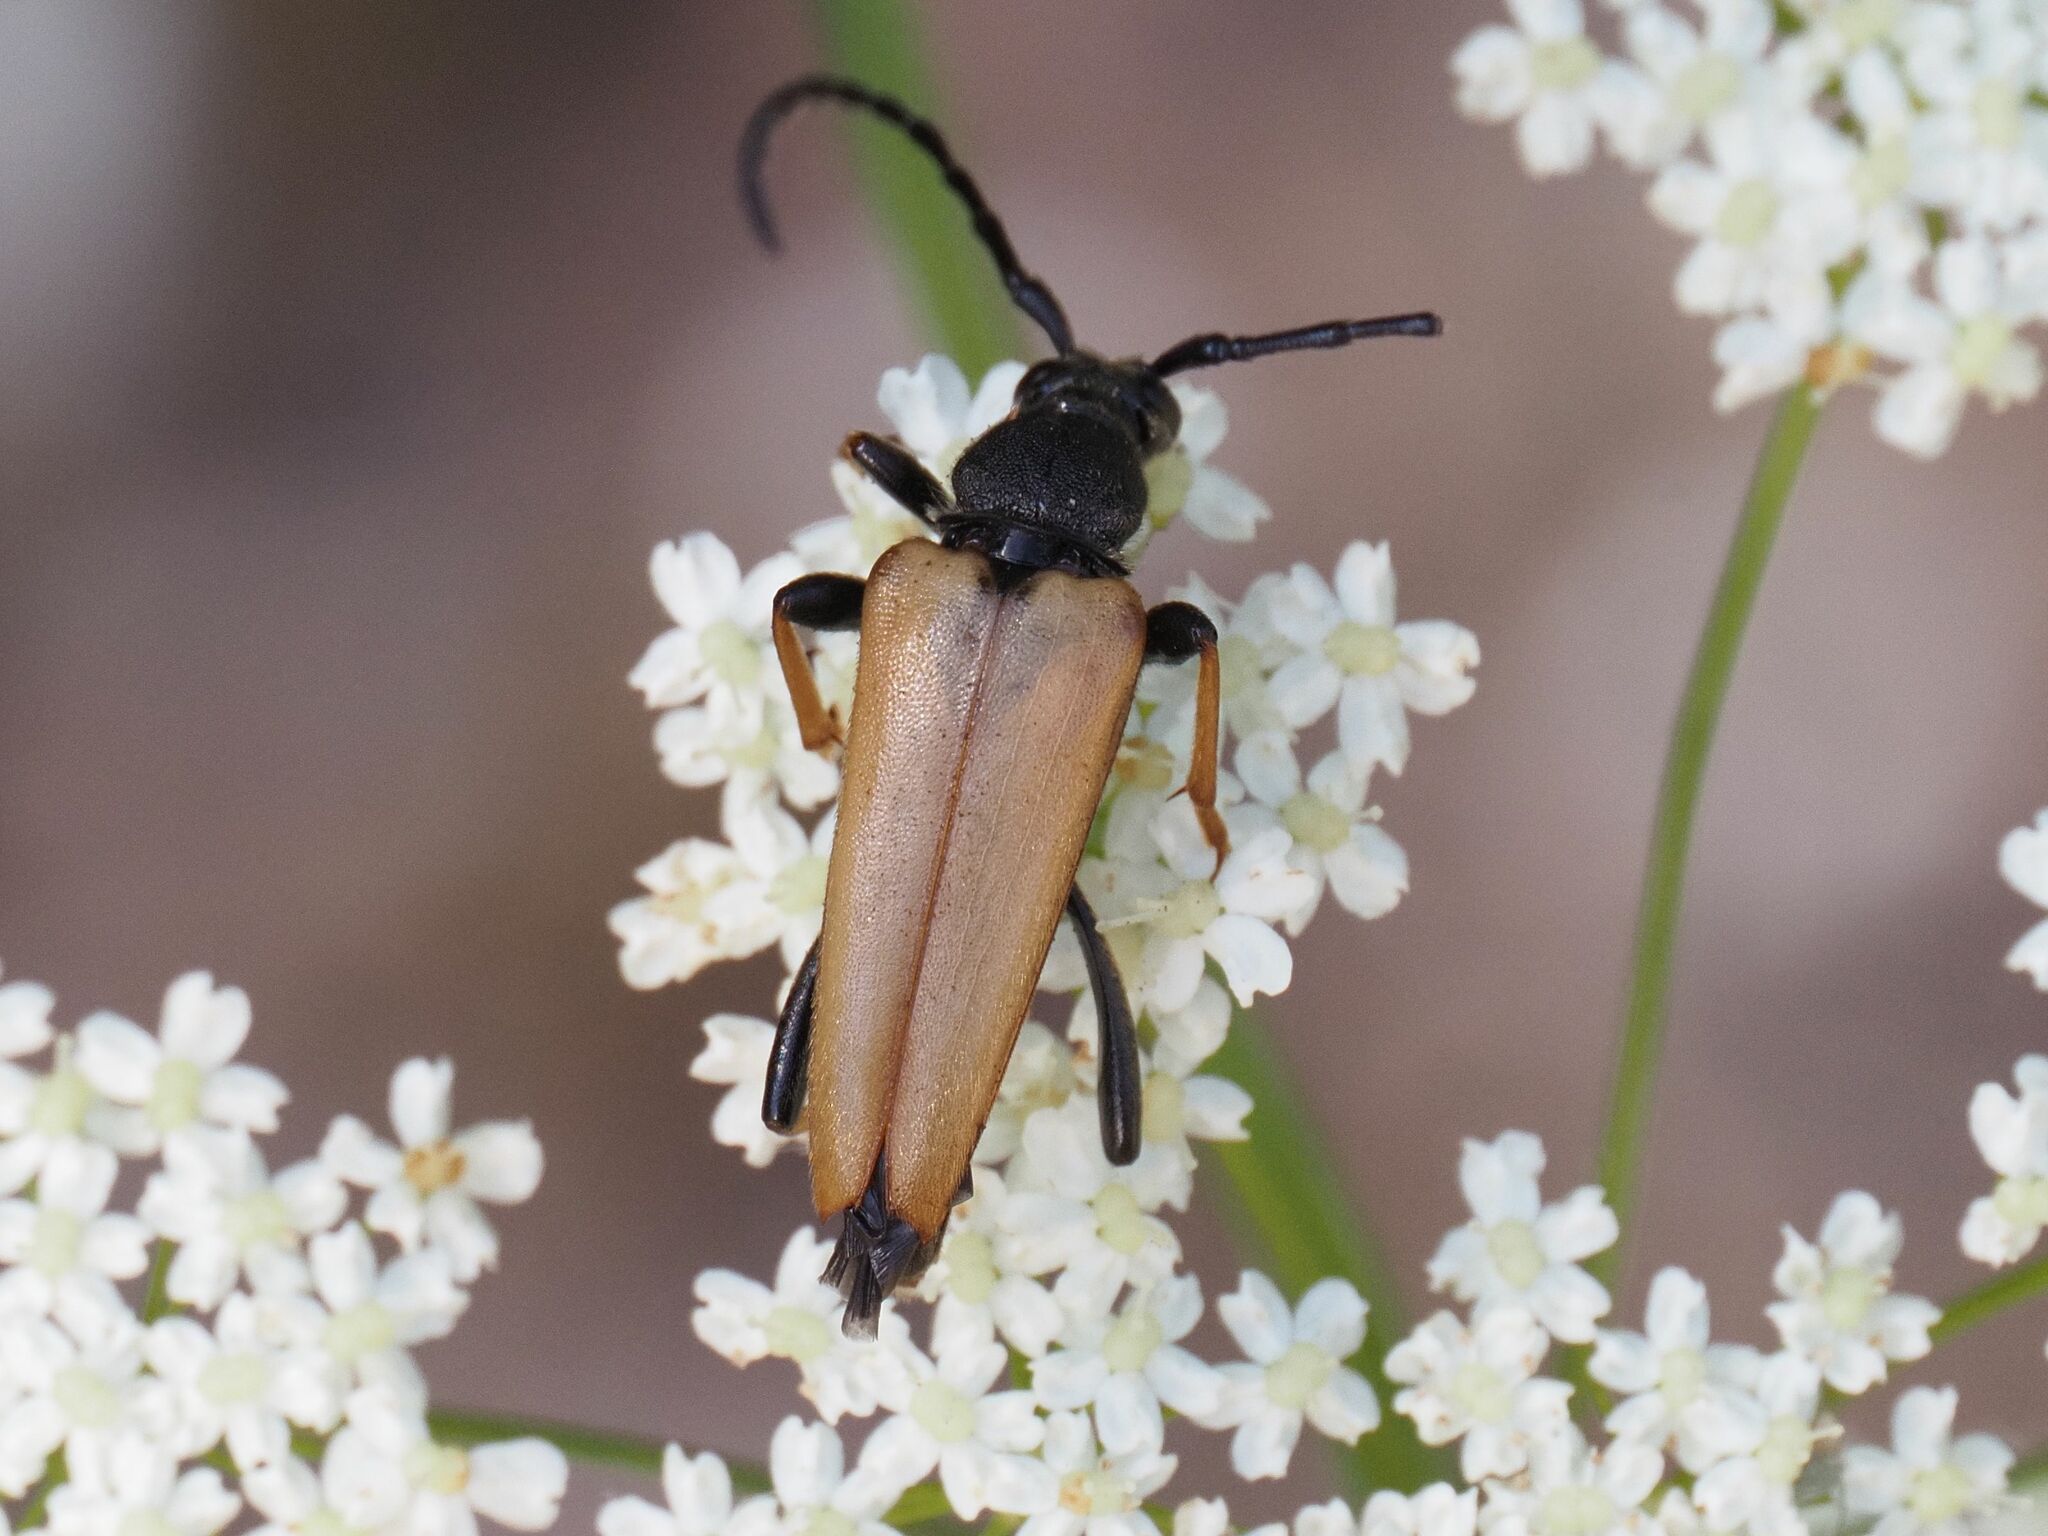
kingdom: Animalia
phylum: Arthropoda
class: Insecta
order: Coleoptera
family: Cerambycidae
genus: Stictoleptura
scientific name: Stictoleptura rubra
